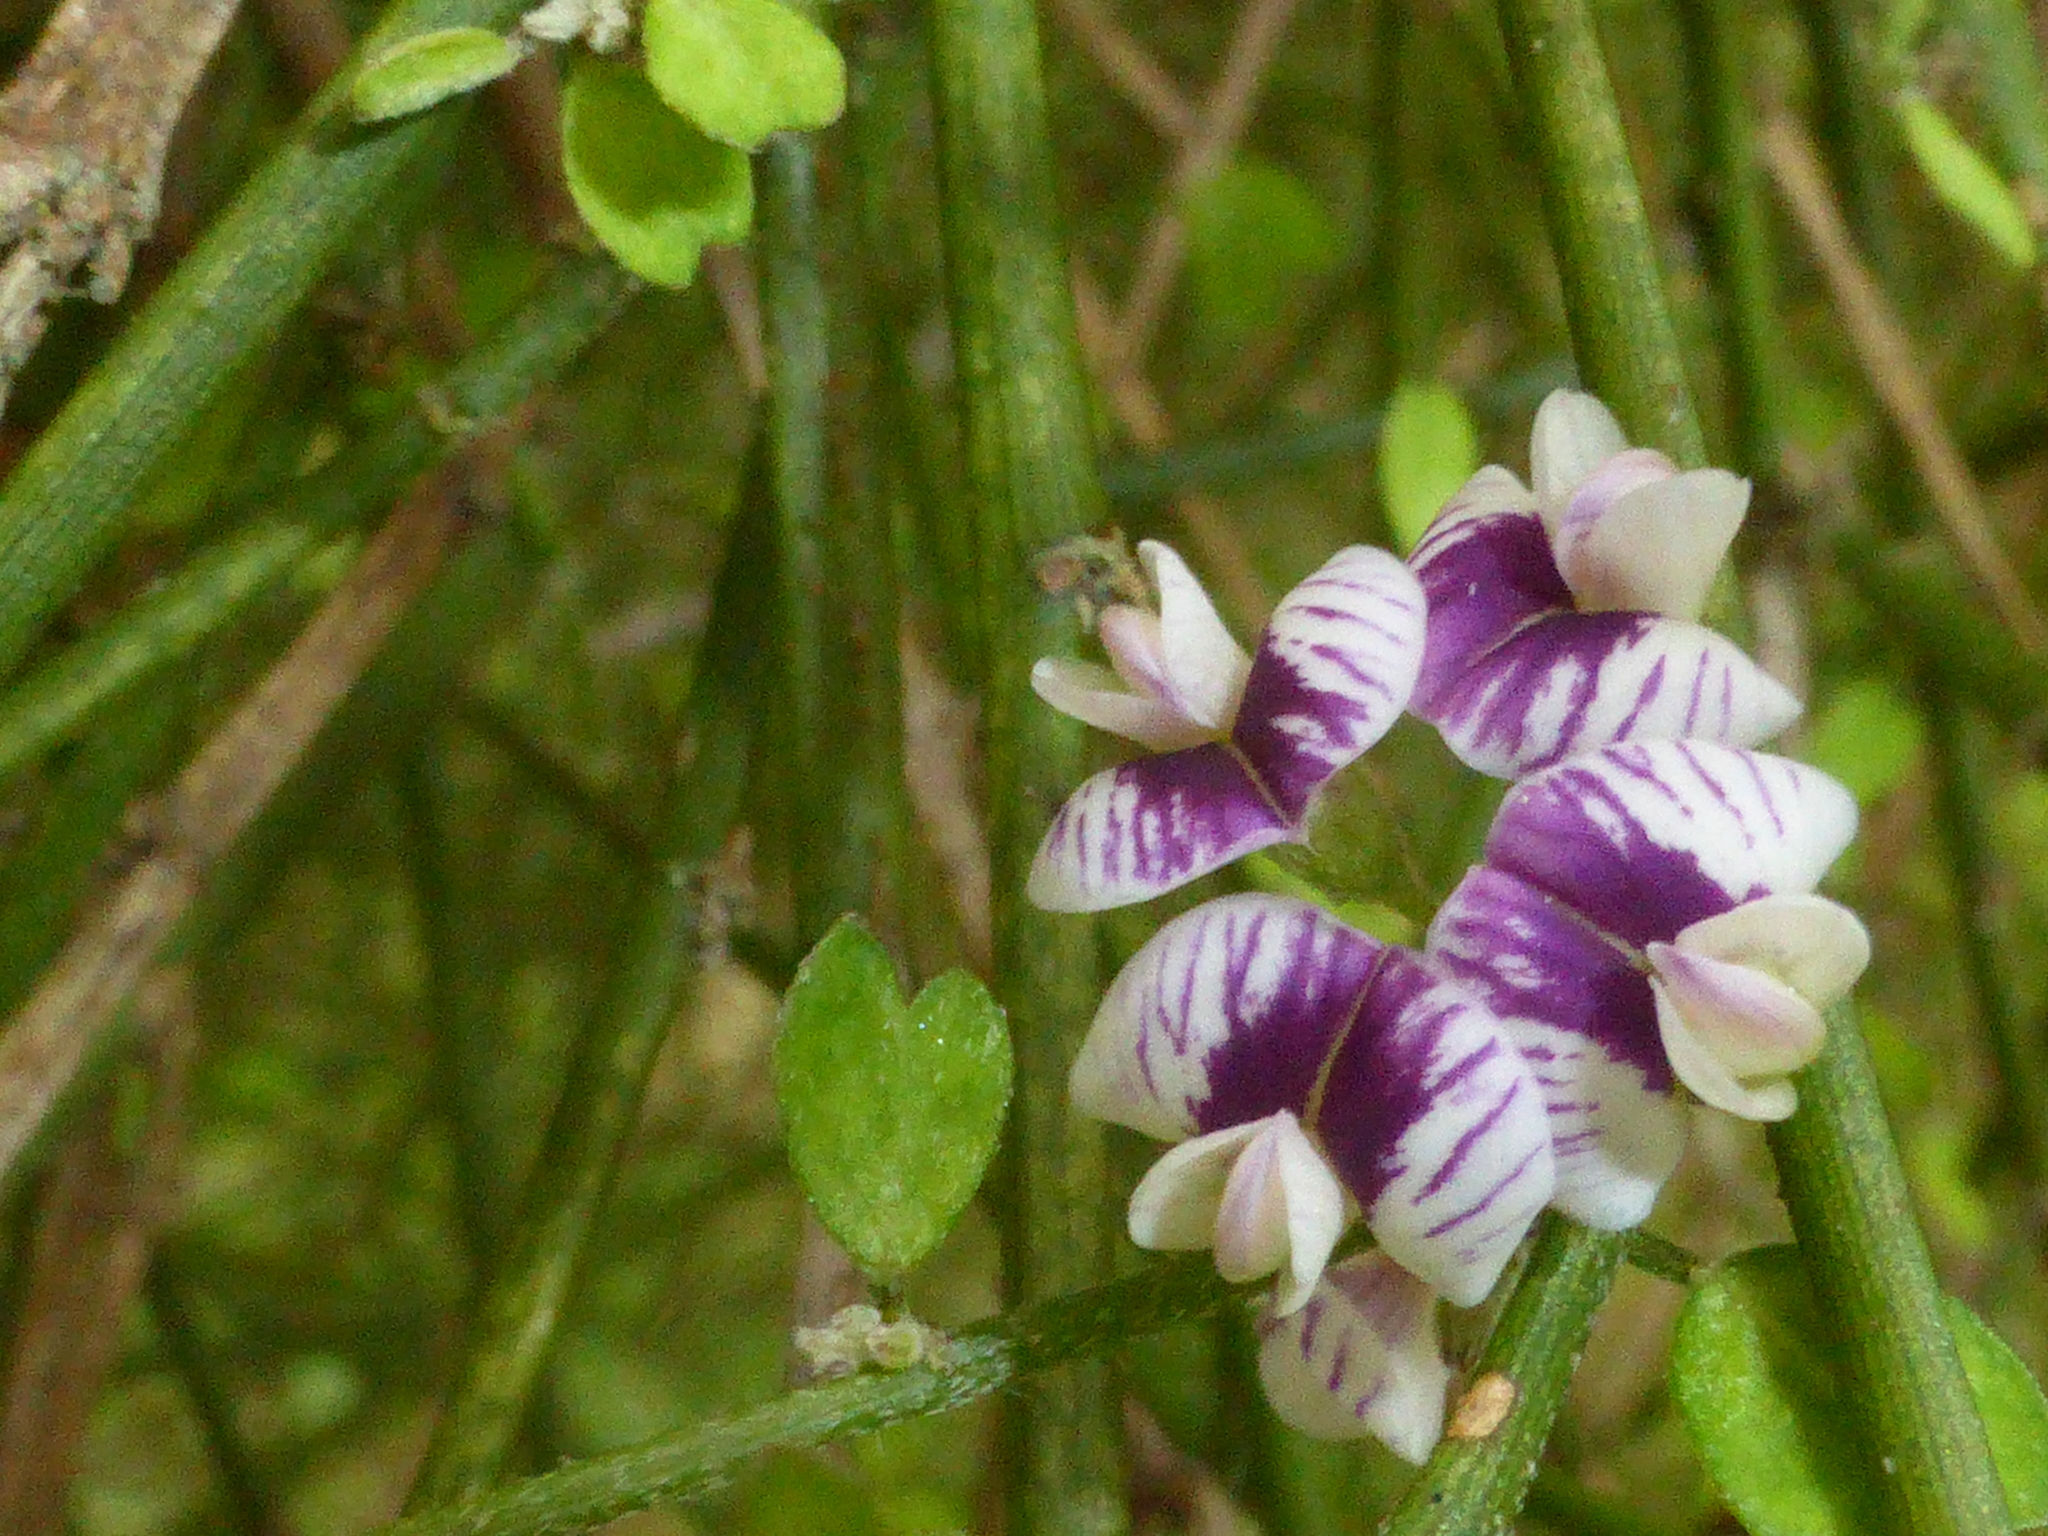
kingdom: Plantae
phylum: Tracheophyta
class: Magnoliopsida
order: Fabales
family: Fabaceae
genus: Carmichaelia
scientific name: Carmichaelia australis
